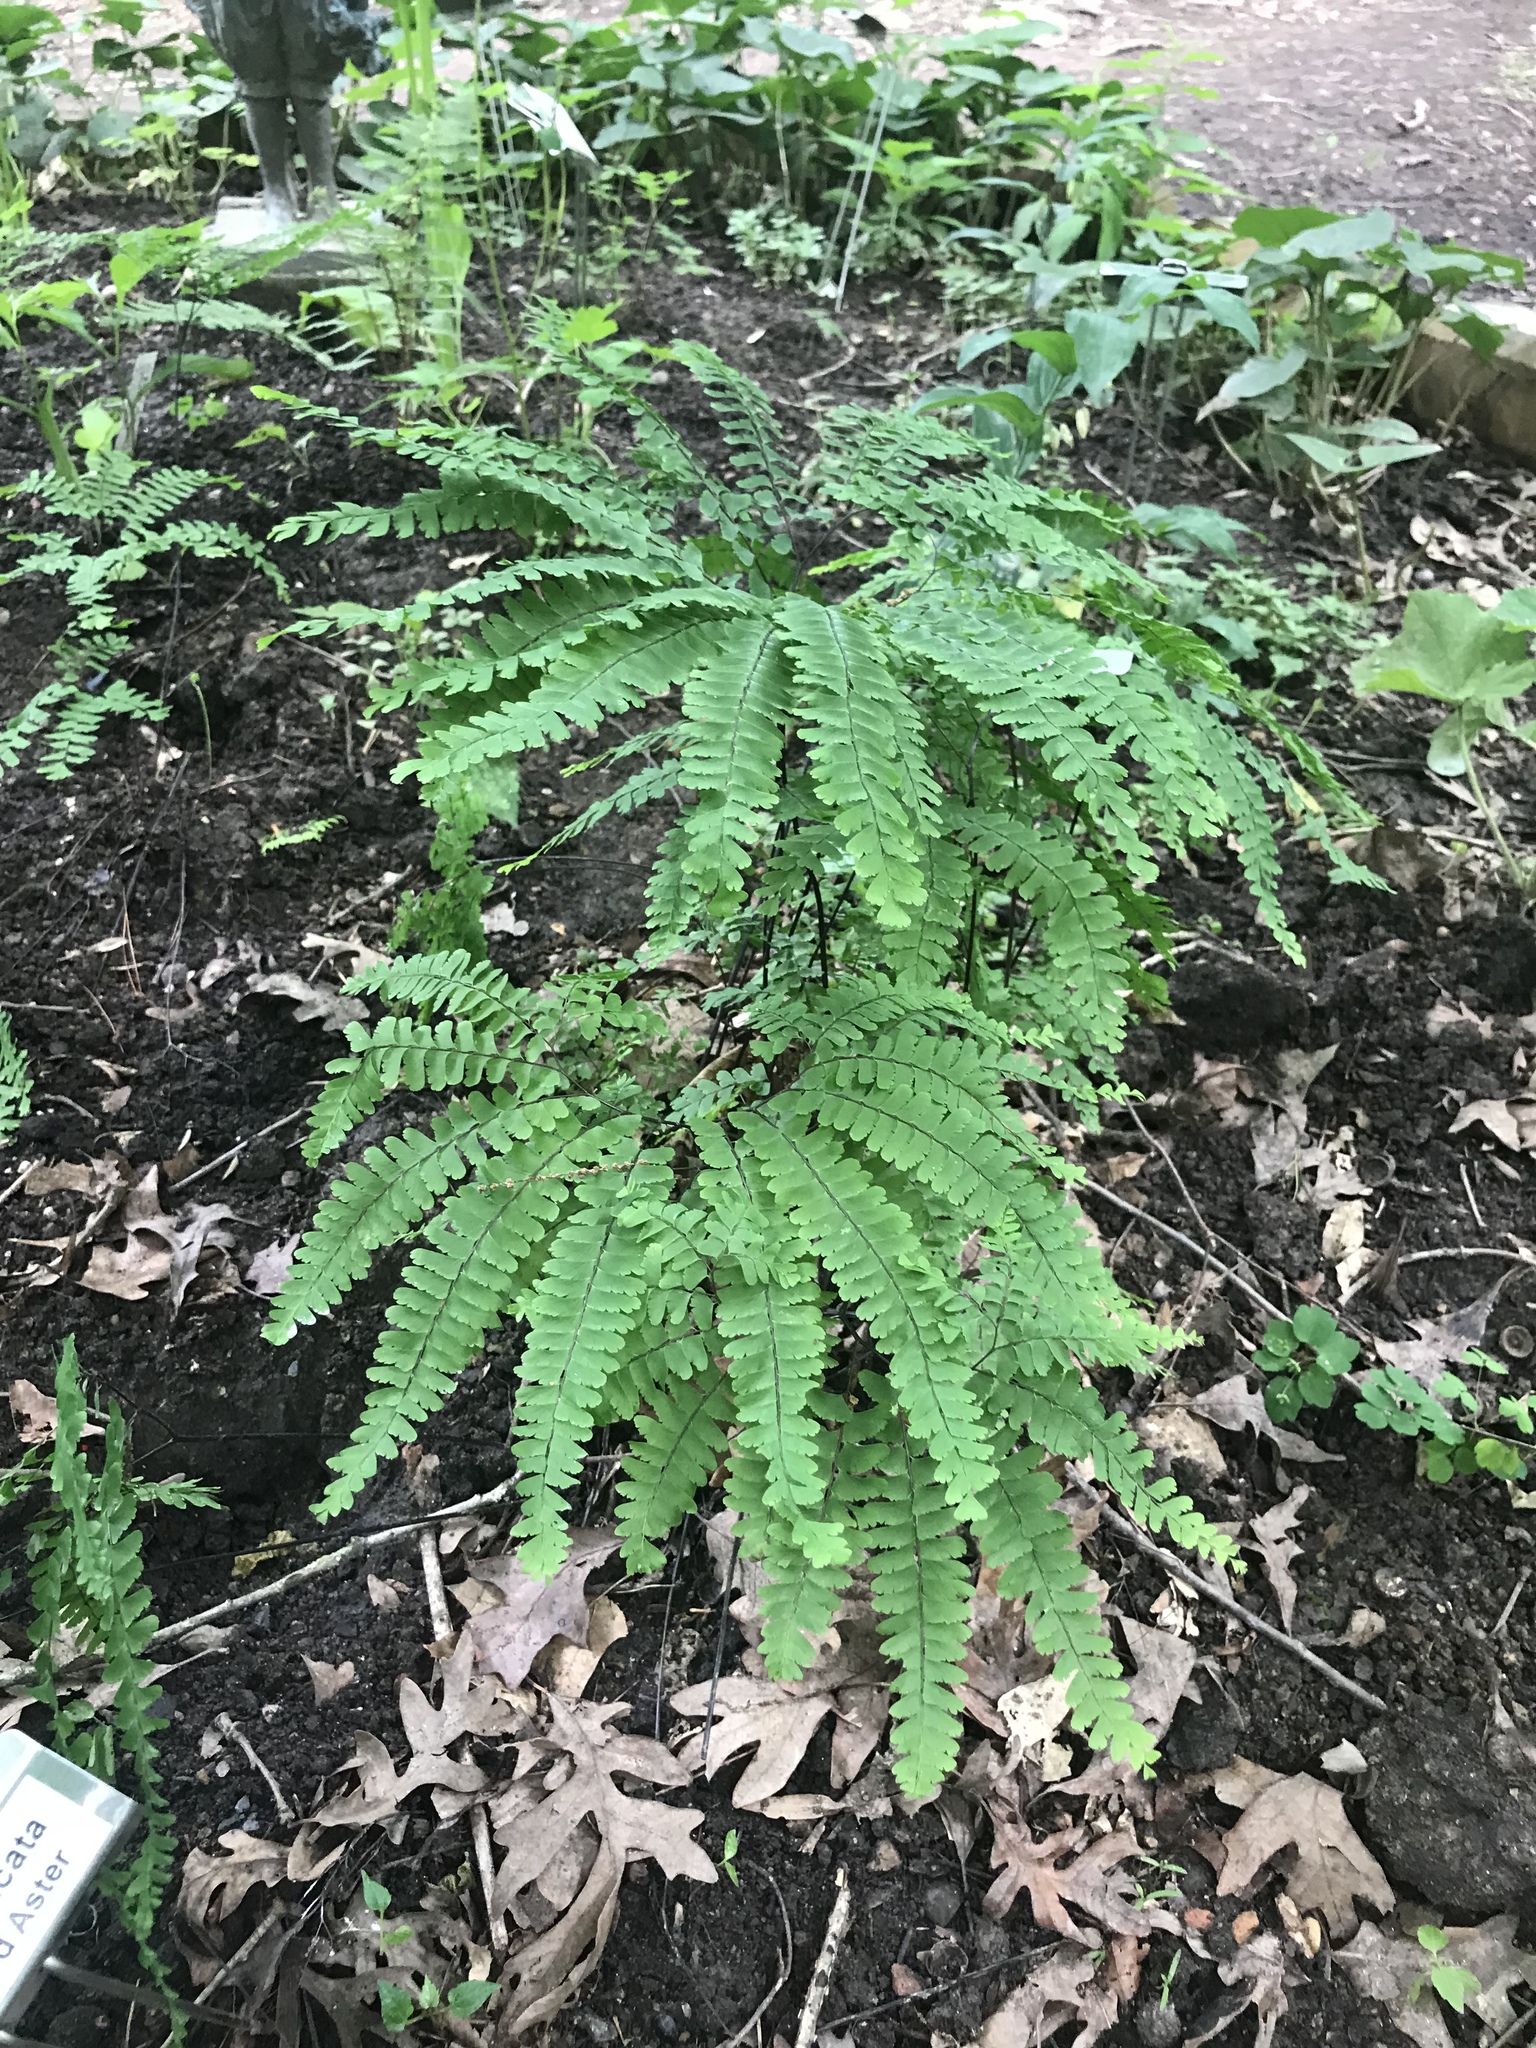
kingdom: Plantae
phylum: Tracheophyta
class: Polypodiopsida
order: Polypodiales
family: Pteridaceae
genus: Adiantum
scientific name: Adiantum pedatum
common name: Five-finger fern
